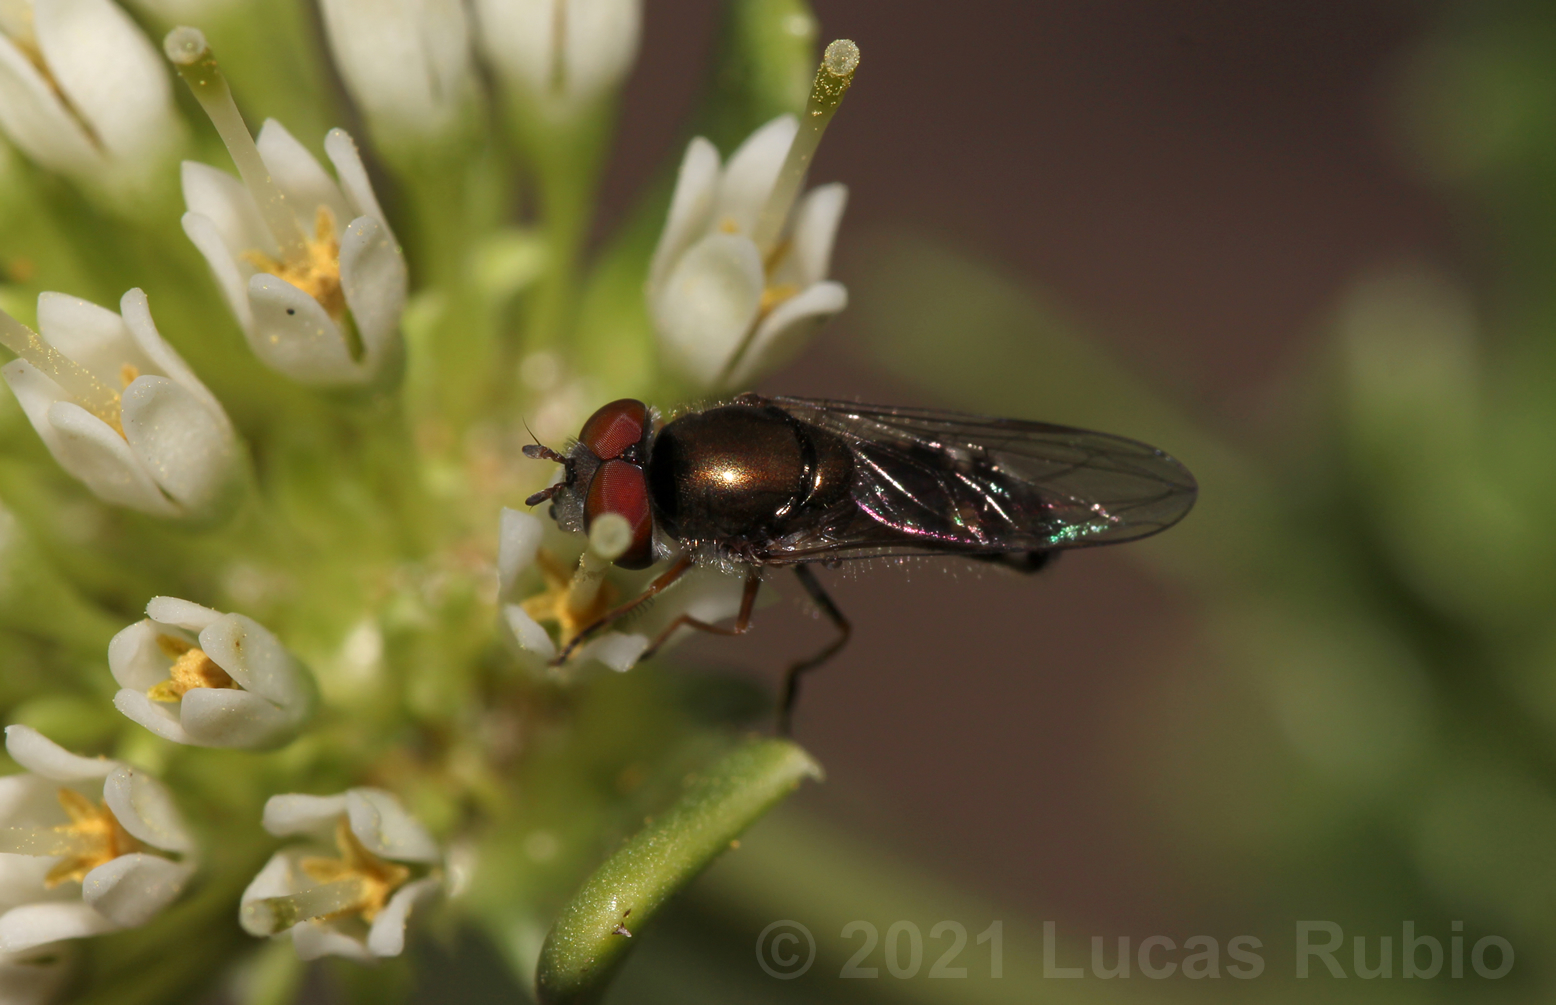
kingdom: Animalia
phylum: Arthropoda
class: Insecta
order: Diptera
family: Syrphidae
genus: Platycheirus
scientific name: Platycheirus punctulatus
